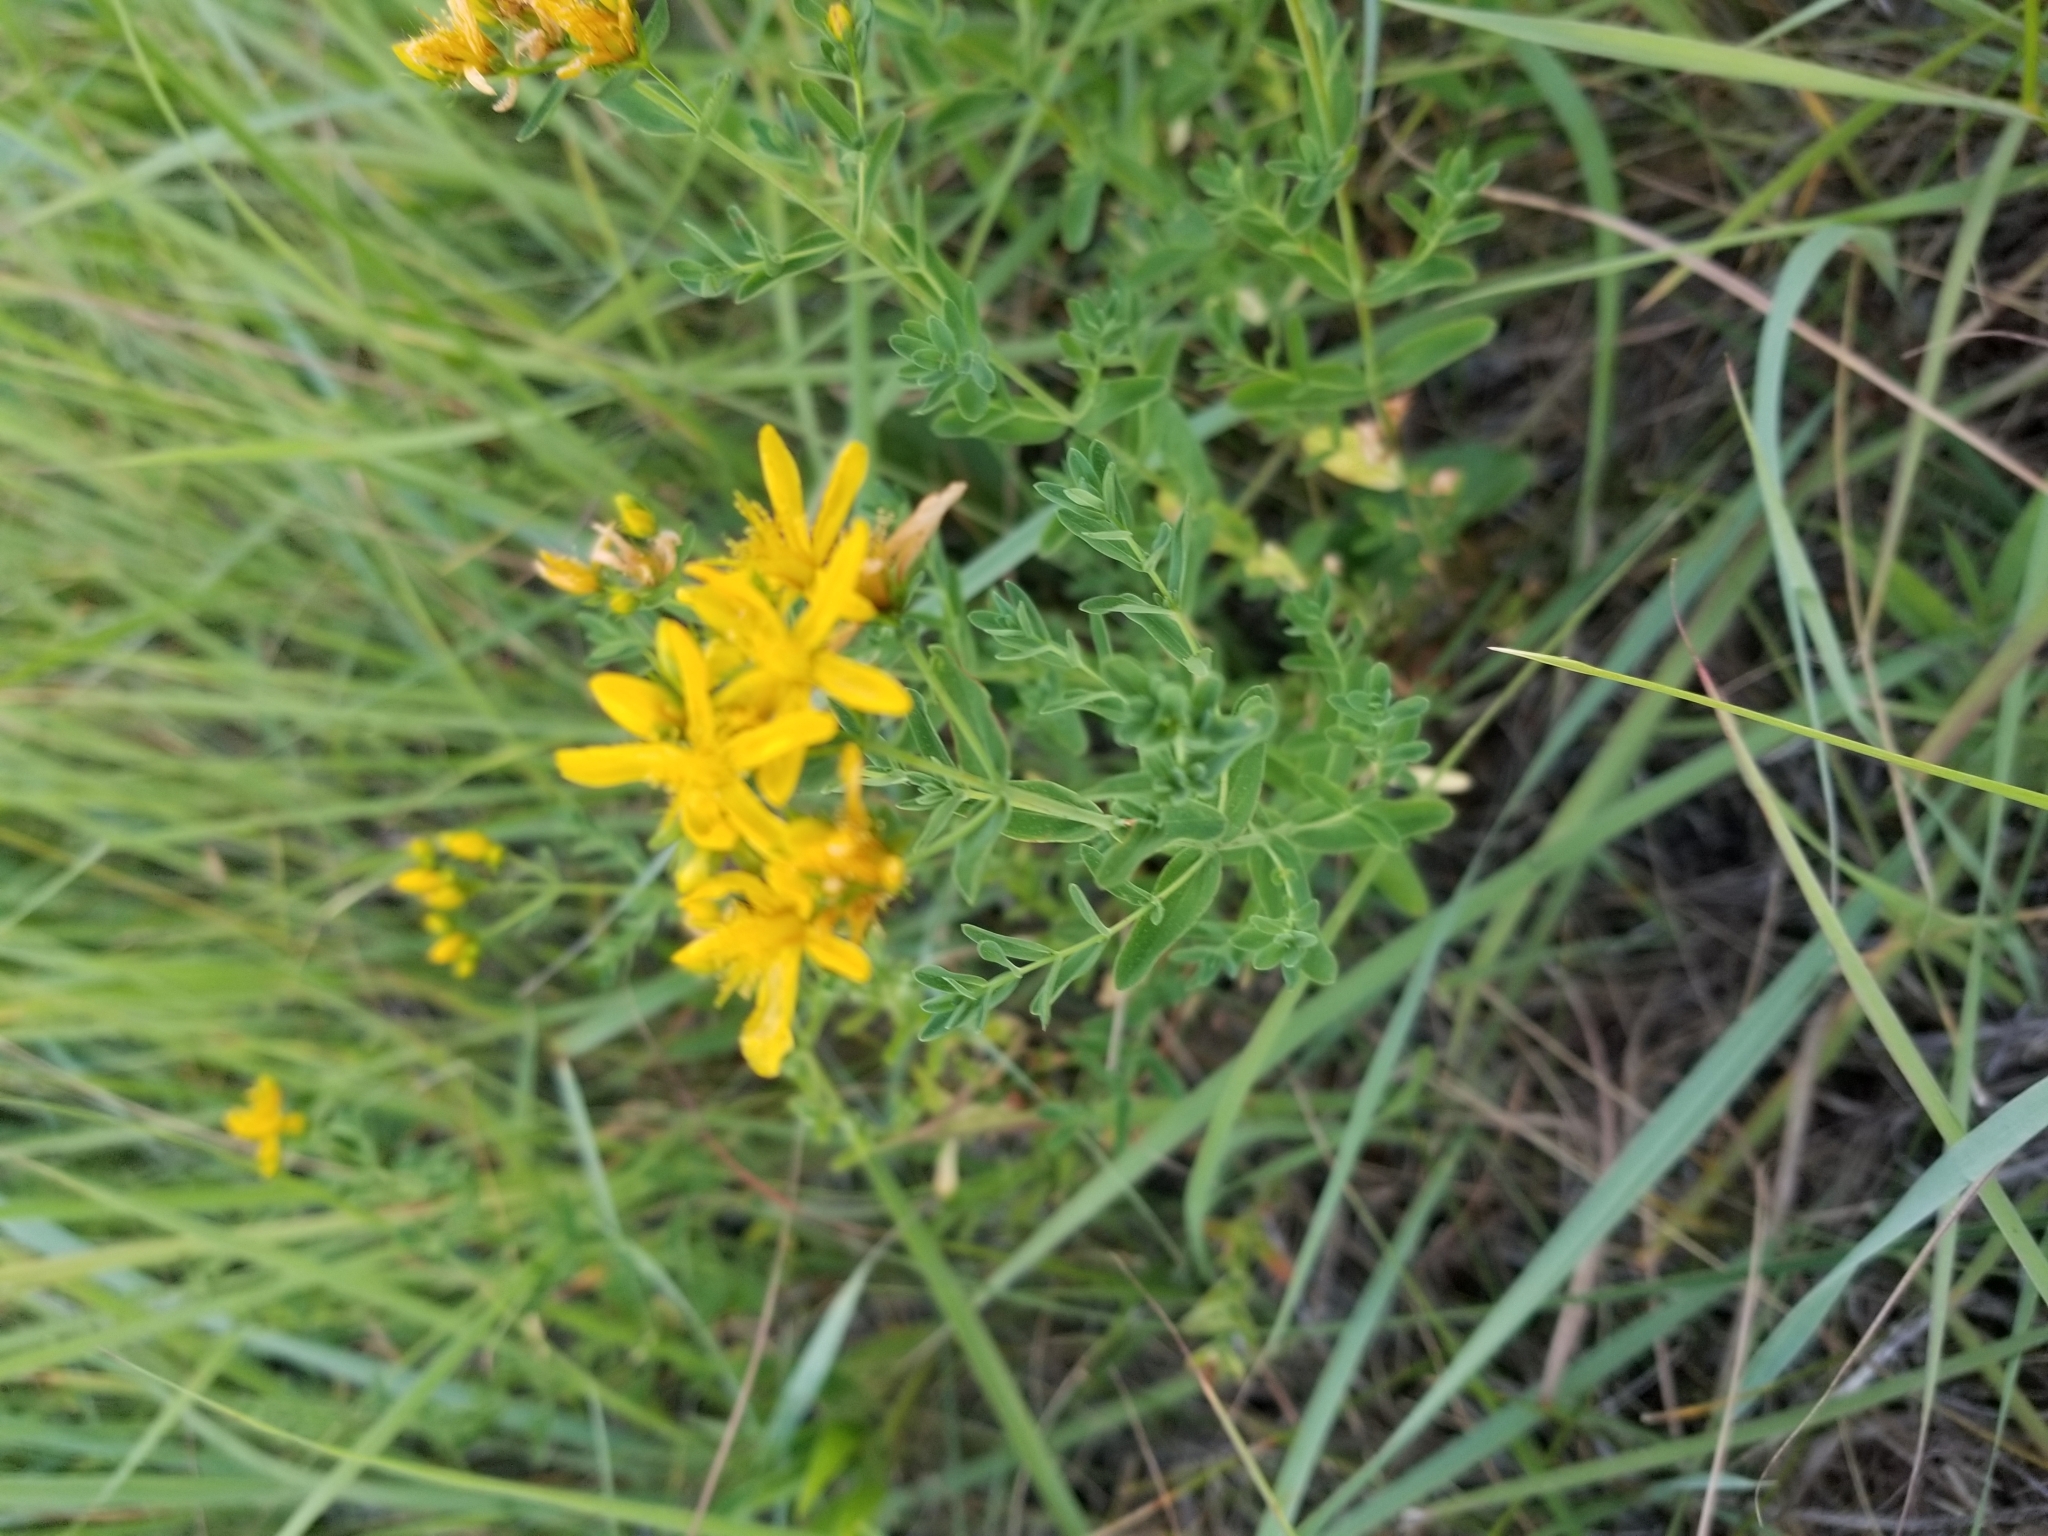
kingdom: Plantae
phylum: Tracheophyta
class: Magnoliopsida
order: Malpighiales
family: Hypericaceae
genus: Hypericum
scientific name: Hypericum perforatum
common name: Common st. johnswort
